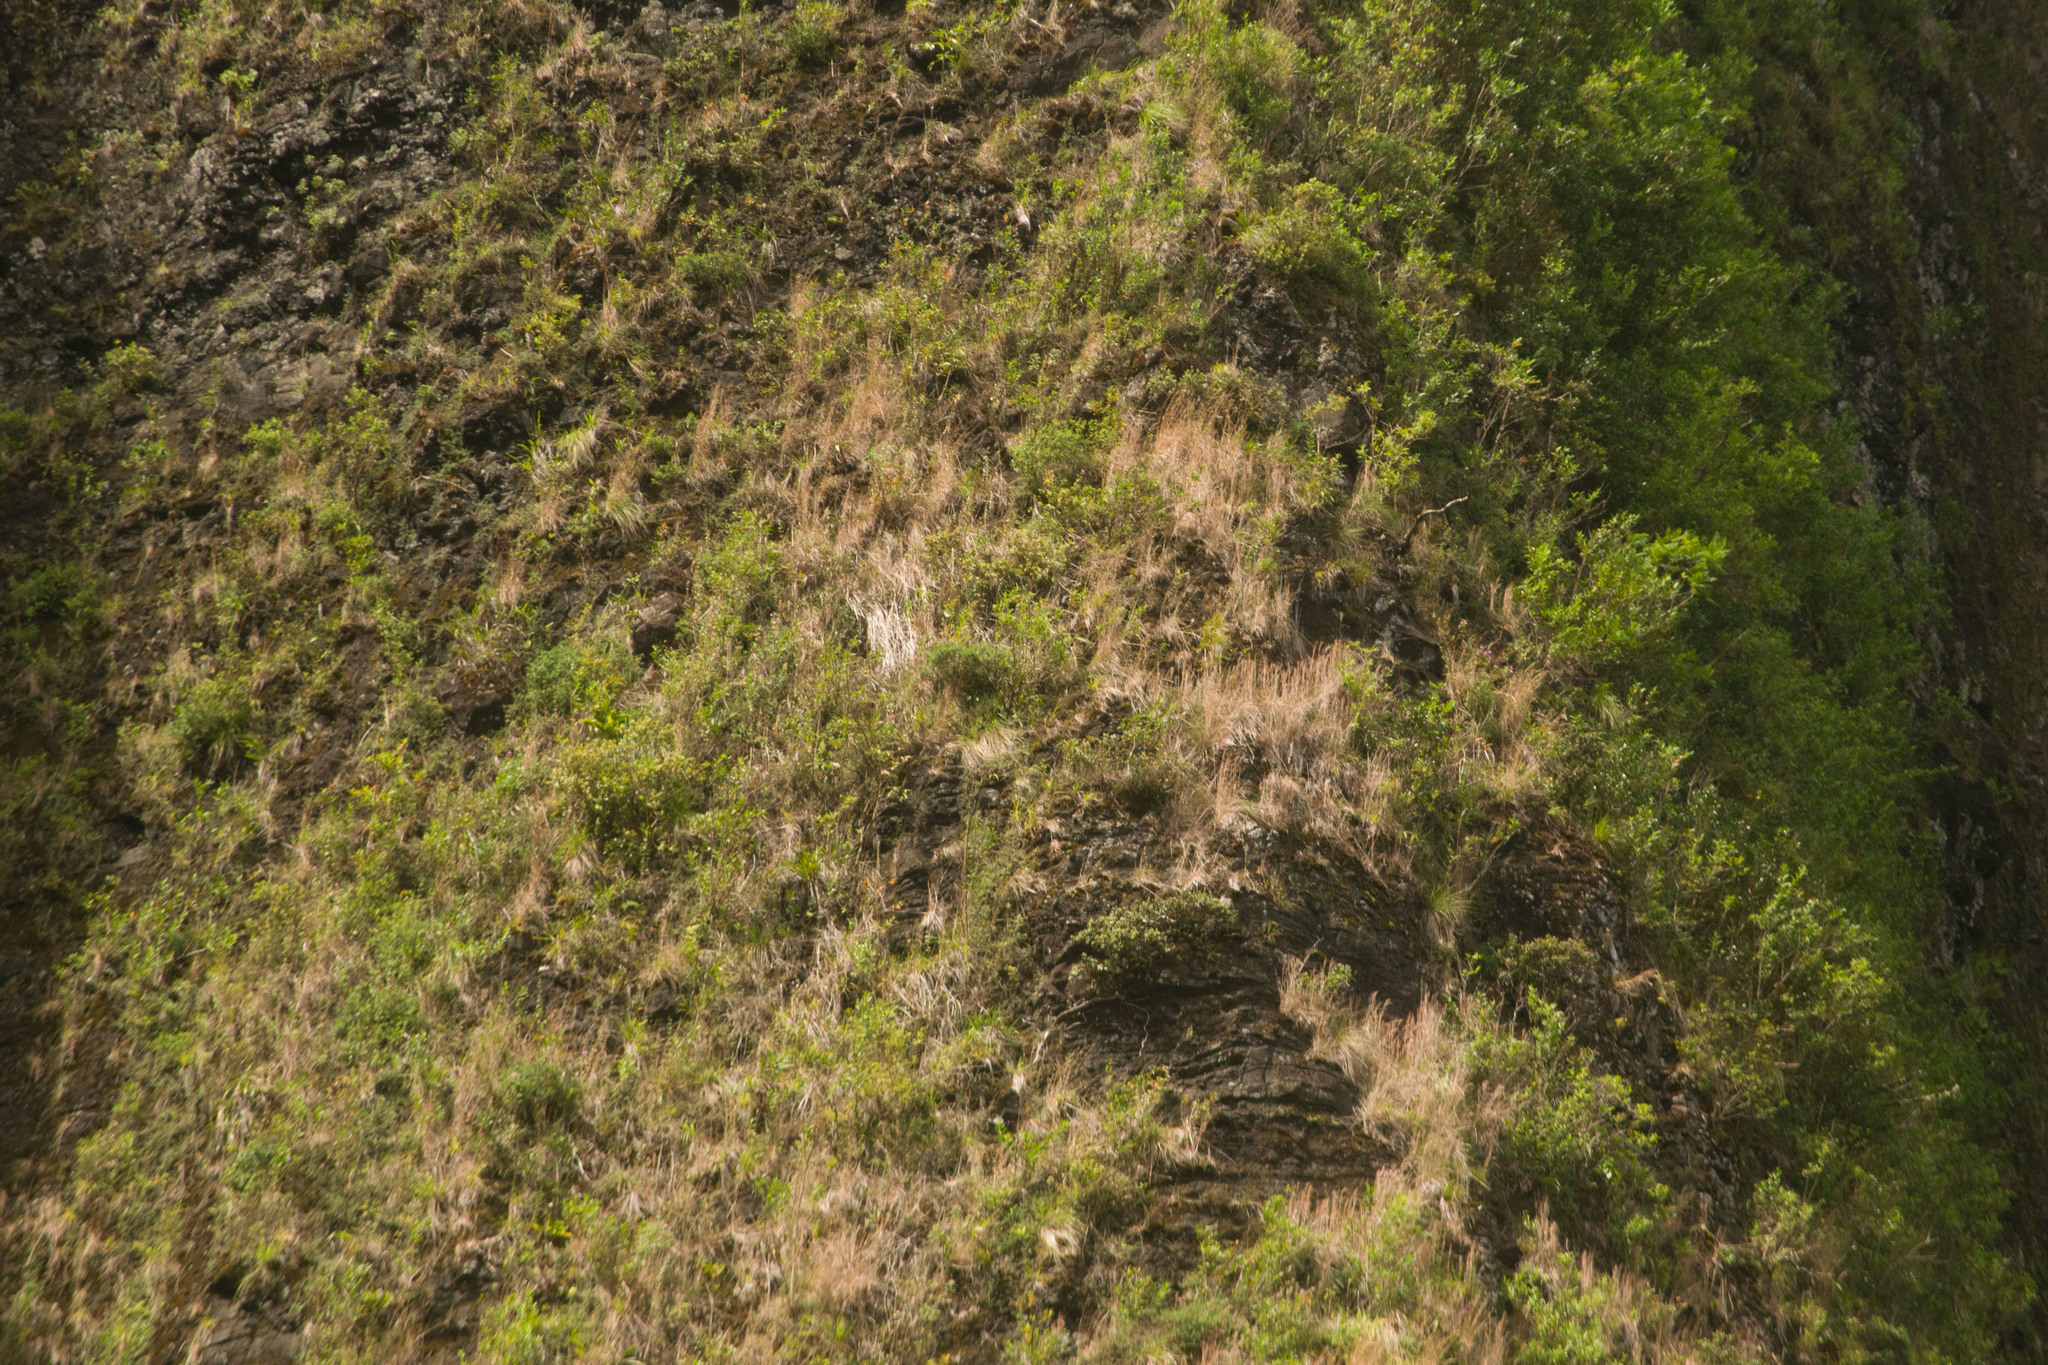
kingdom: Plantae
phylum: Tracheophyta
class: Liliopsida
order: Poales
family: Poaceae
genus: Andropogon
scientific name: Andropogon virginicus
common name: Broomsedge bluestem
